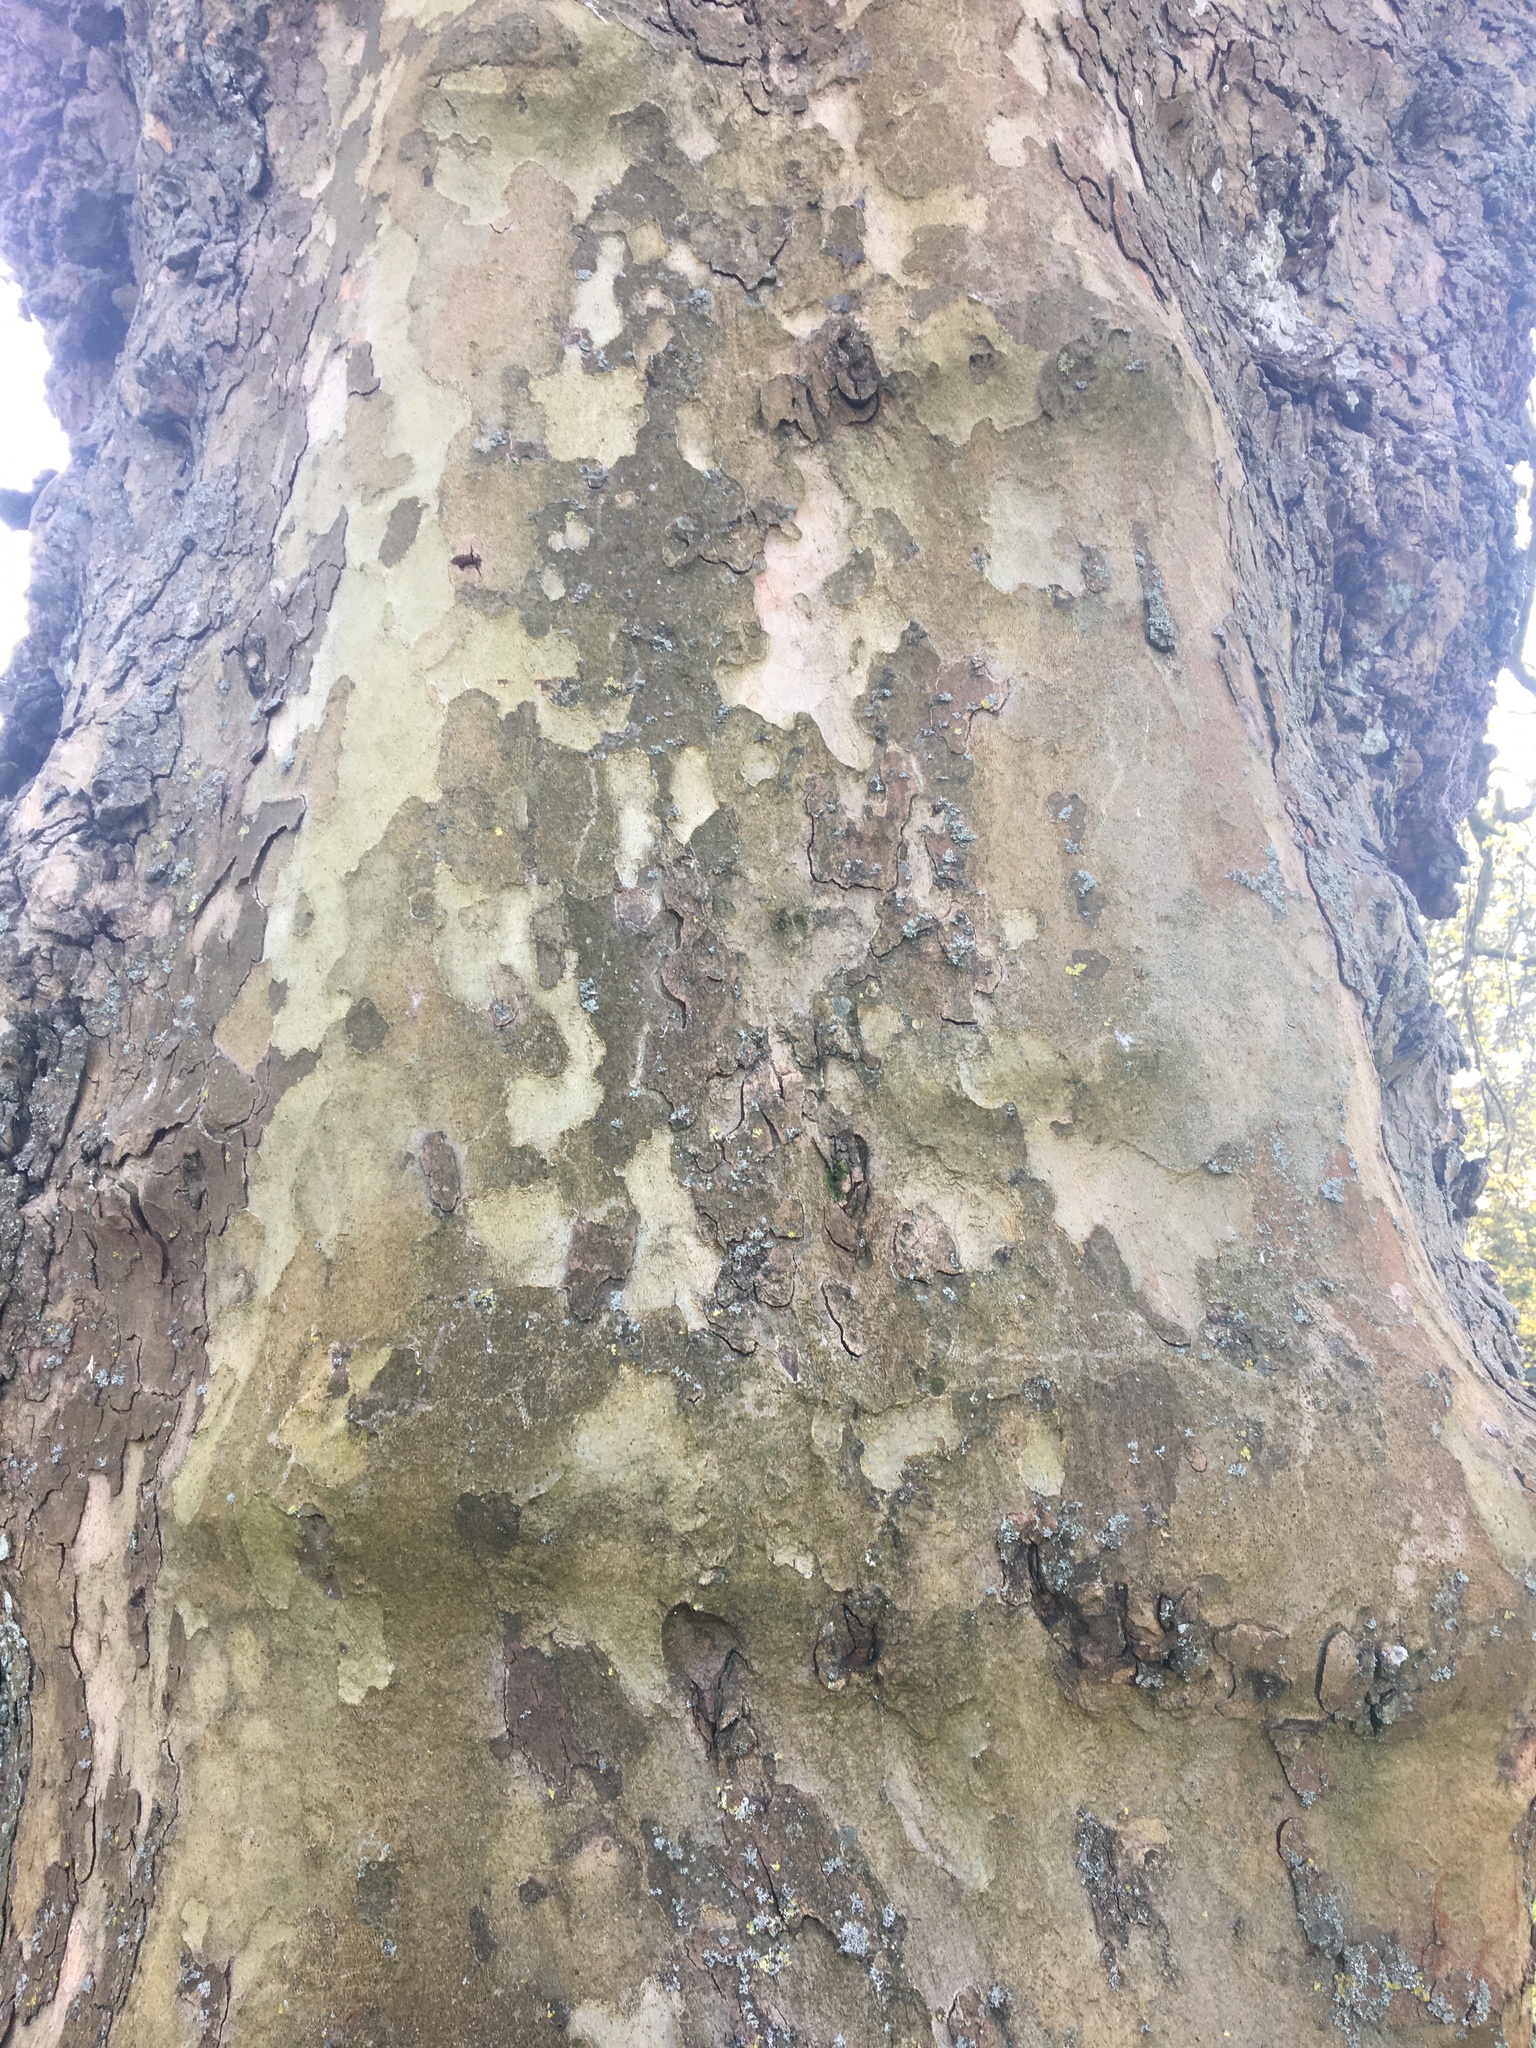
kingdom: Plantae
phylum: Tracheophyta
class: Magnoliopsida
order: Proteales
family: Platanaceae
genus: Platanus
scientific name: Platanus hispanica
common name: London plane
